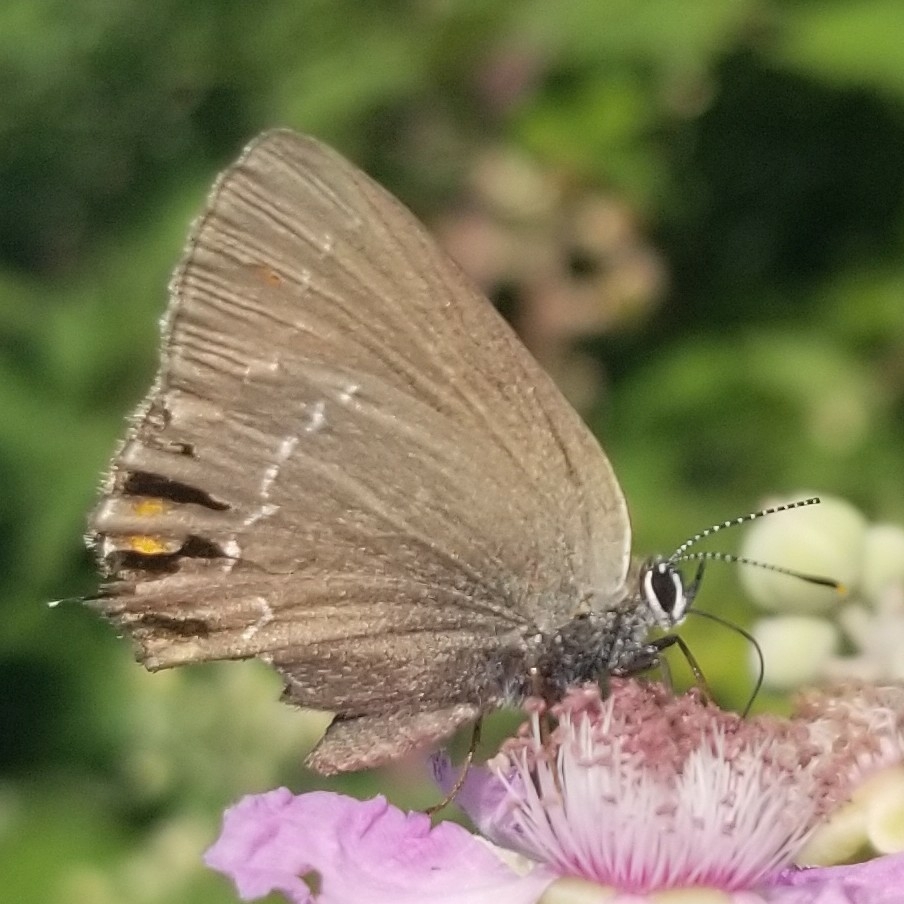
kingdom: Animalia
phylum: Arthropoda
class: Insecta
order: Lepidoptera
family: Lycaenidae
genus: Nordmannia
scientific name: Nordmannia ilicis
